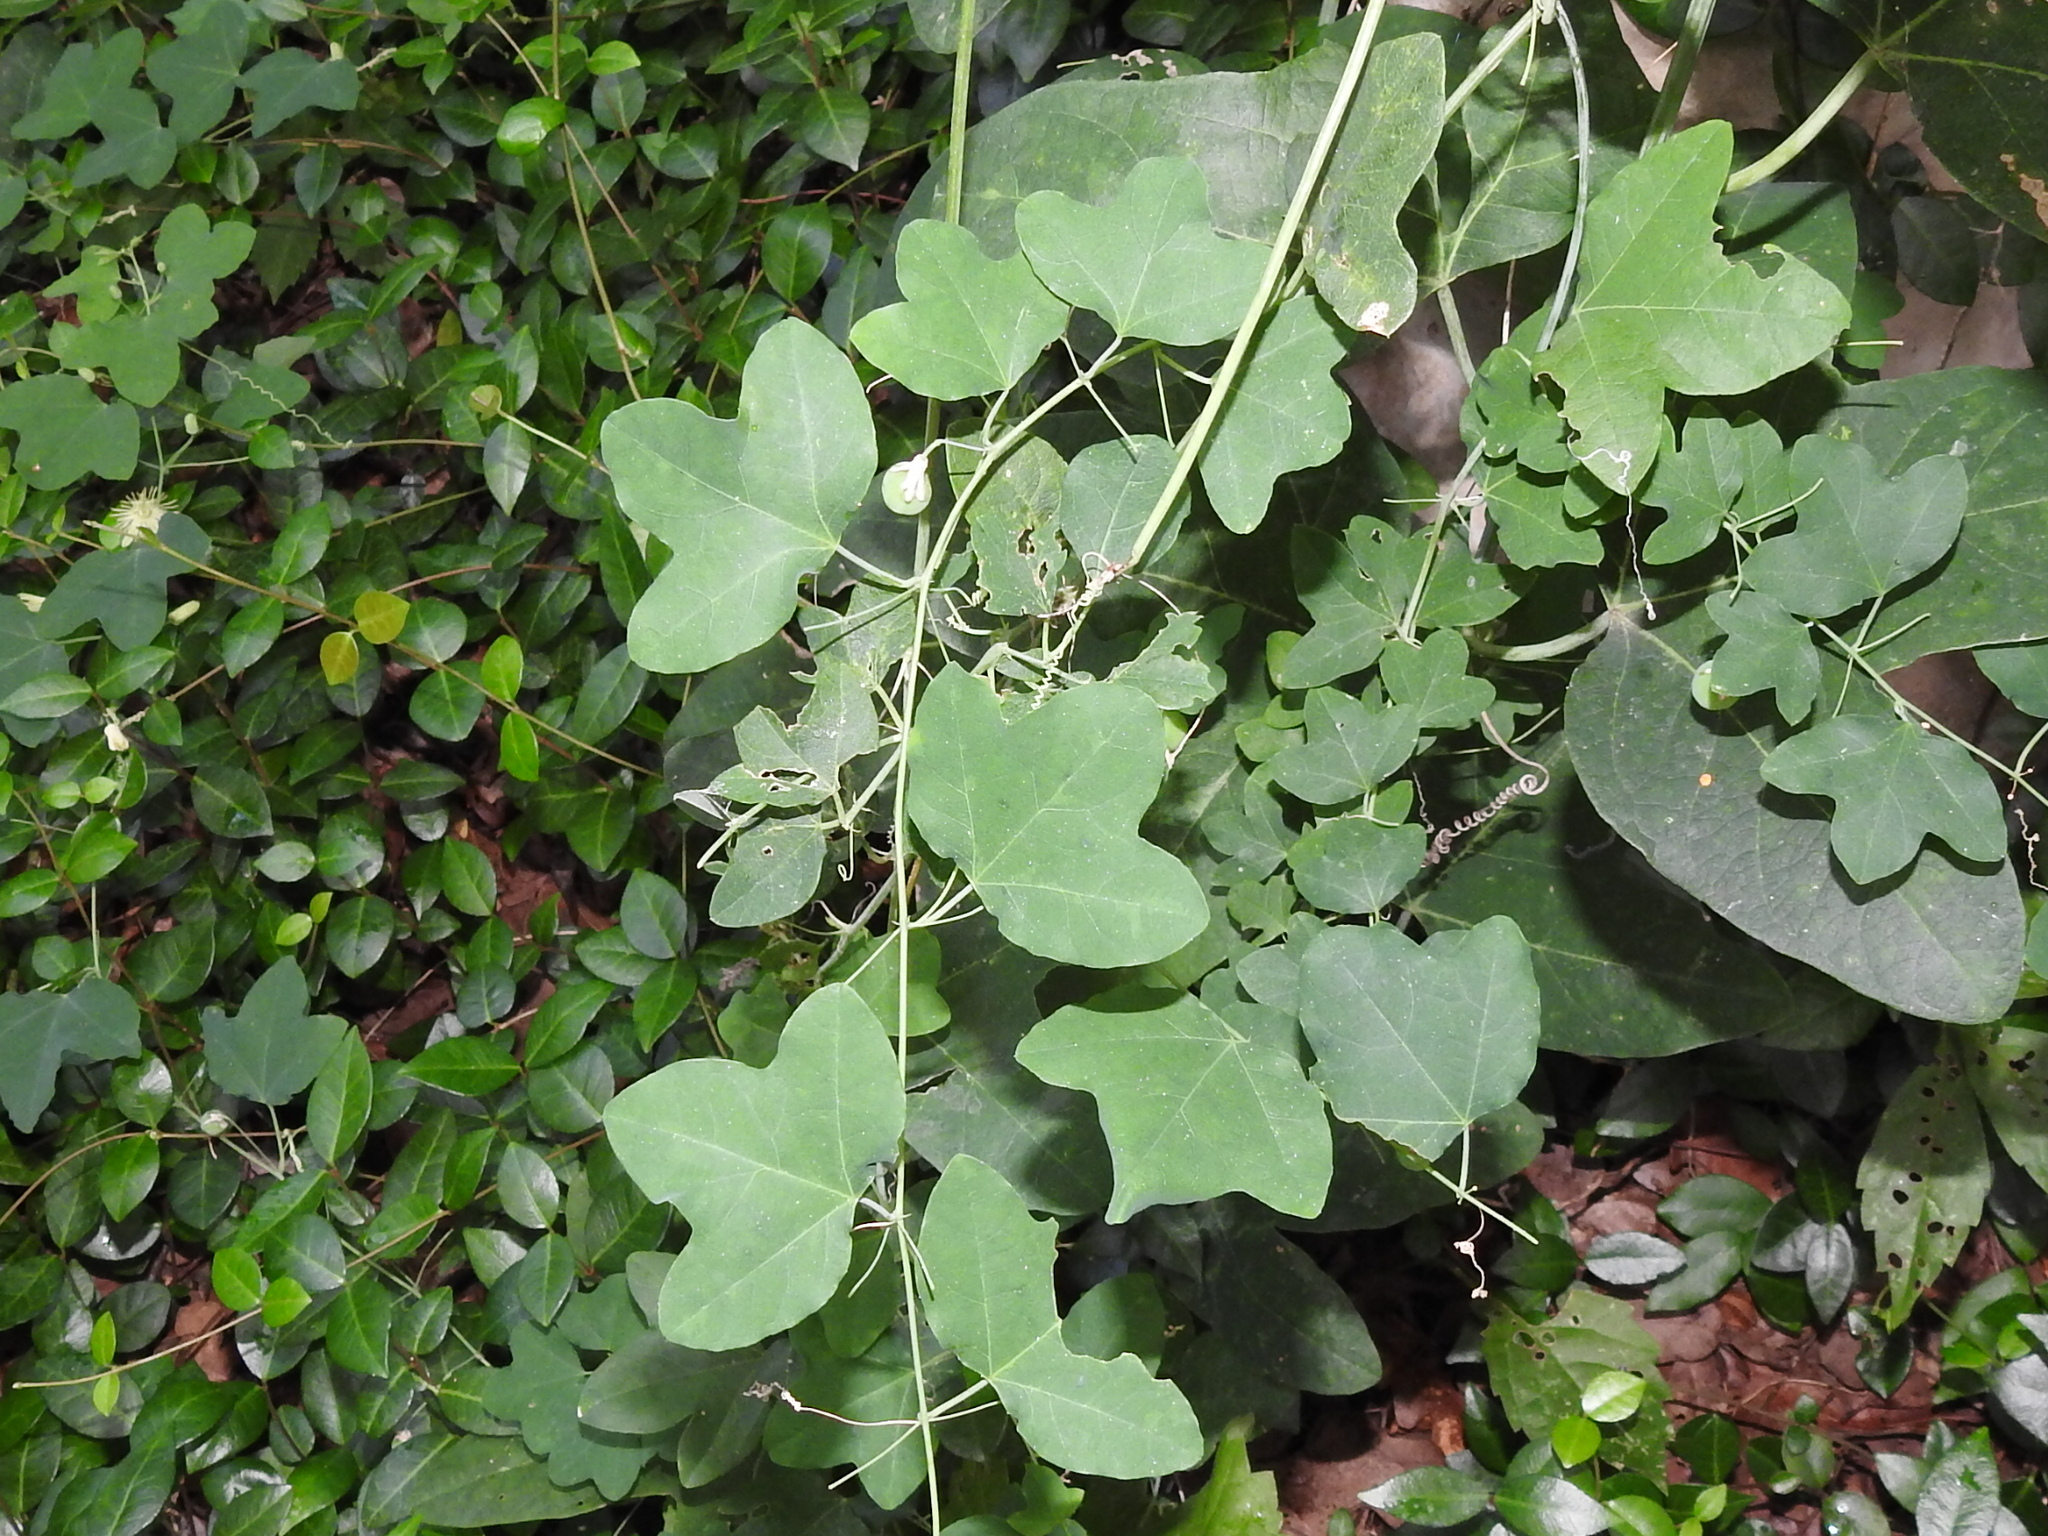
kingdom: Plantae
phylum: Tracheophyta
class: Magnoliopsida
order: Malpighiales
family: Passifloraceae
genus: Passiflora
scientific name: Passiflora lutea
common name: Yellow passionflower
